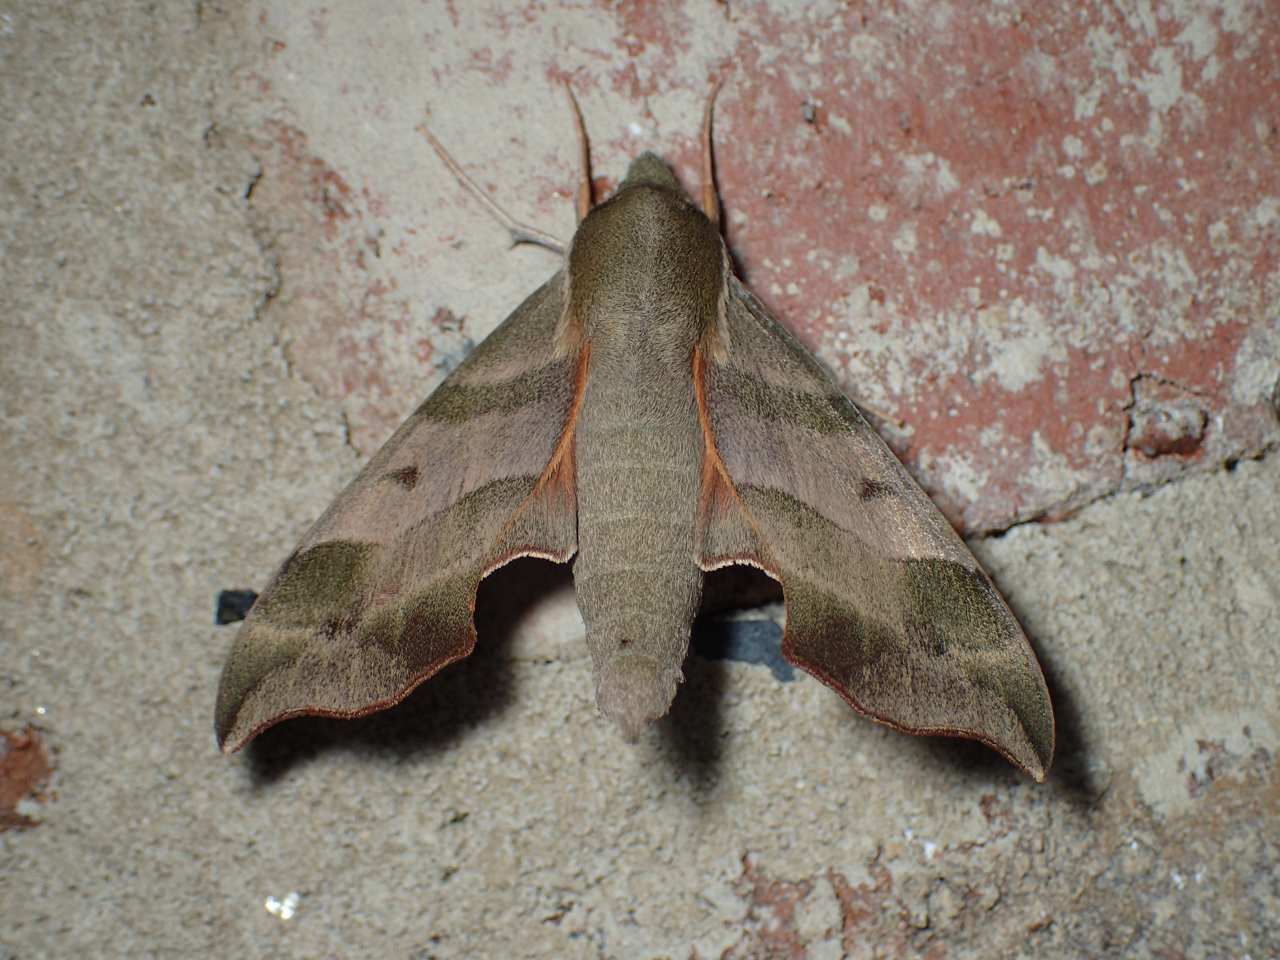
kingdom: Animalia
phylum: Arthropoda
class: Insecta
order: Lepidoptera
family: Sphingidae
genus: Darapsa
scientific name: Darapsa myron
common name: Hog sphinx
